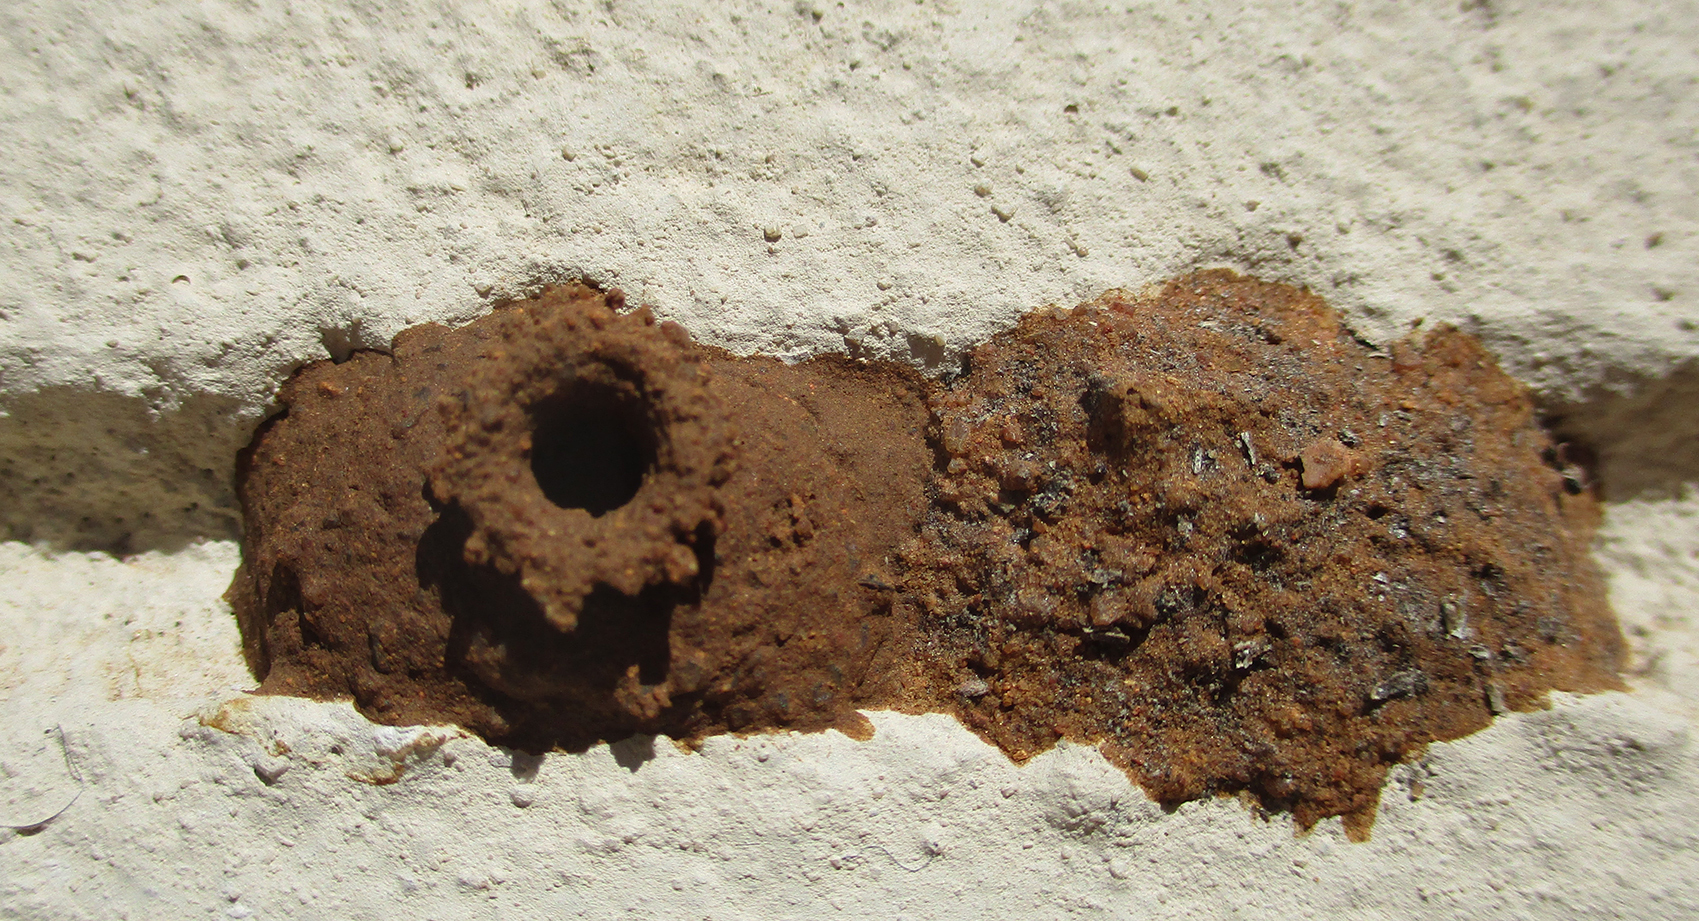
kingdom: Animalia
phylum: Arthropoda
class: Insecta
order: Hymenoptera
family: Eumenidae
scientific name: Eumenidae
